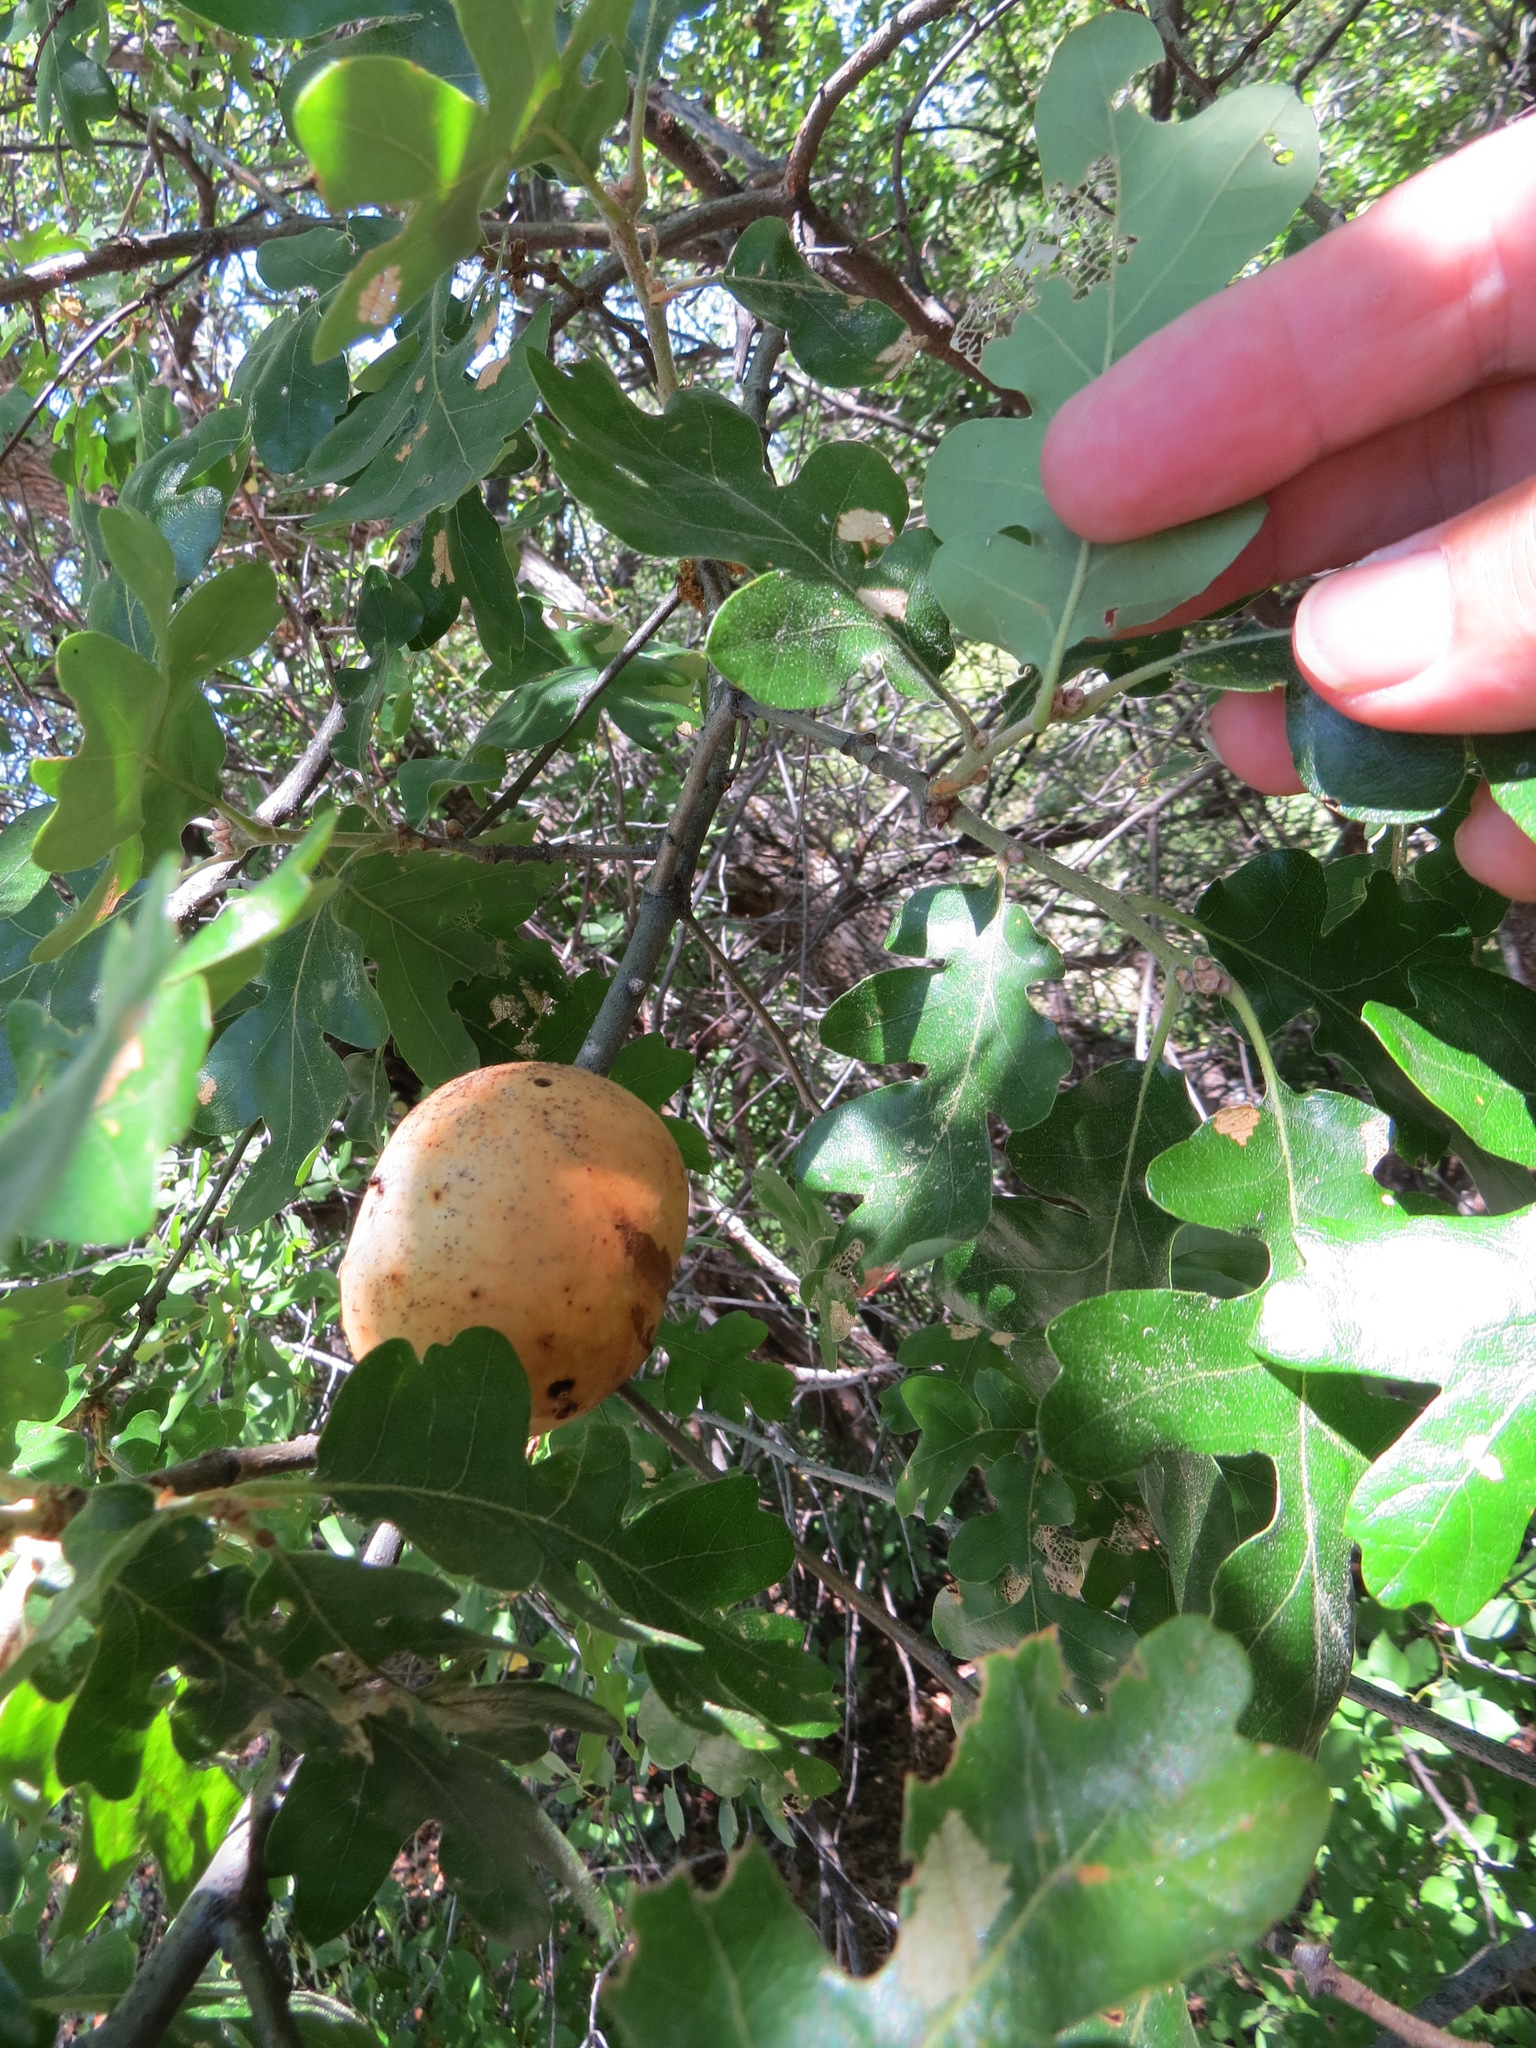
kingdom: Plantae
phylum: Tracheophyta
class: Magnoliopsida
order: Fagales
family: Fagaceae
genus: Quercus
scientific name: Quercus garryana
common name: Garry oak
